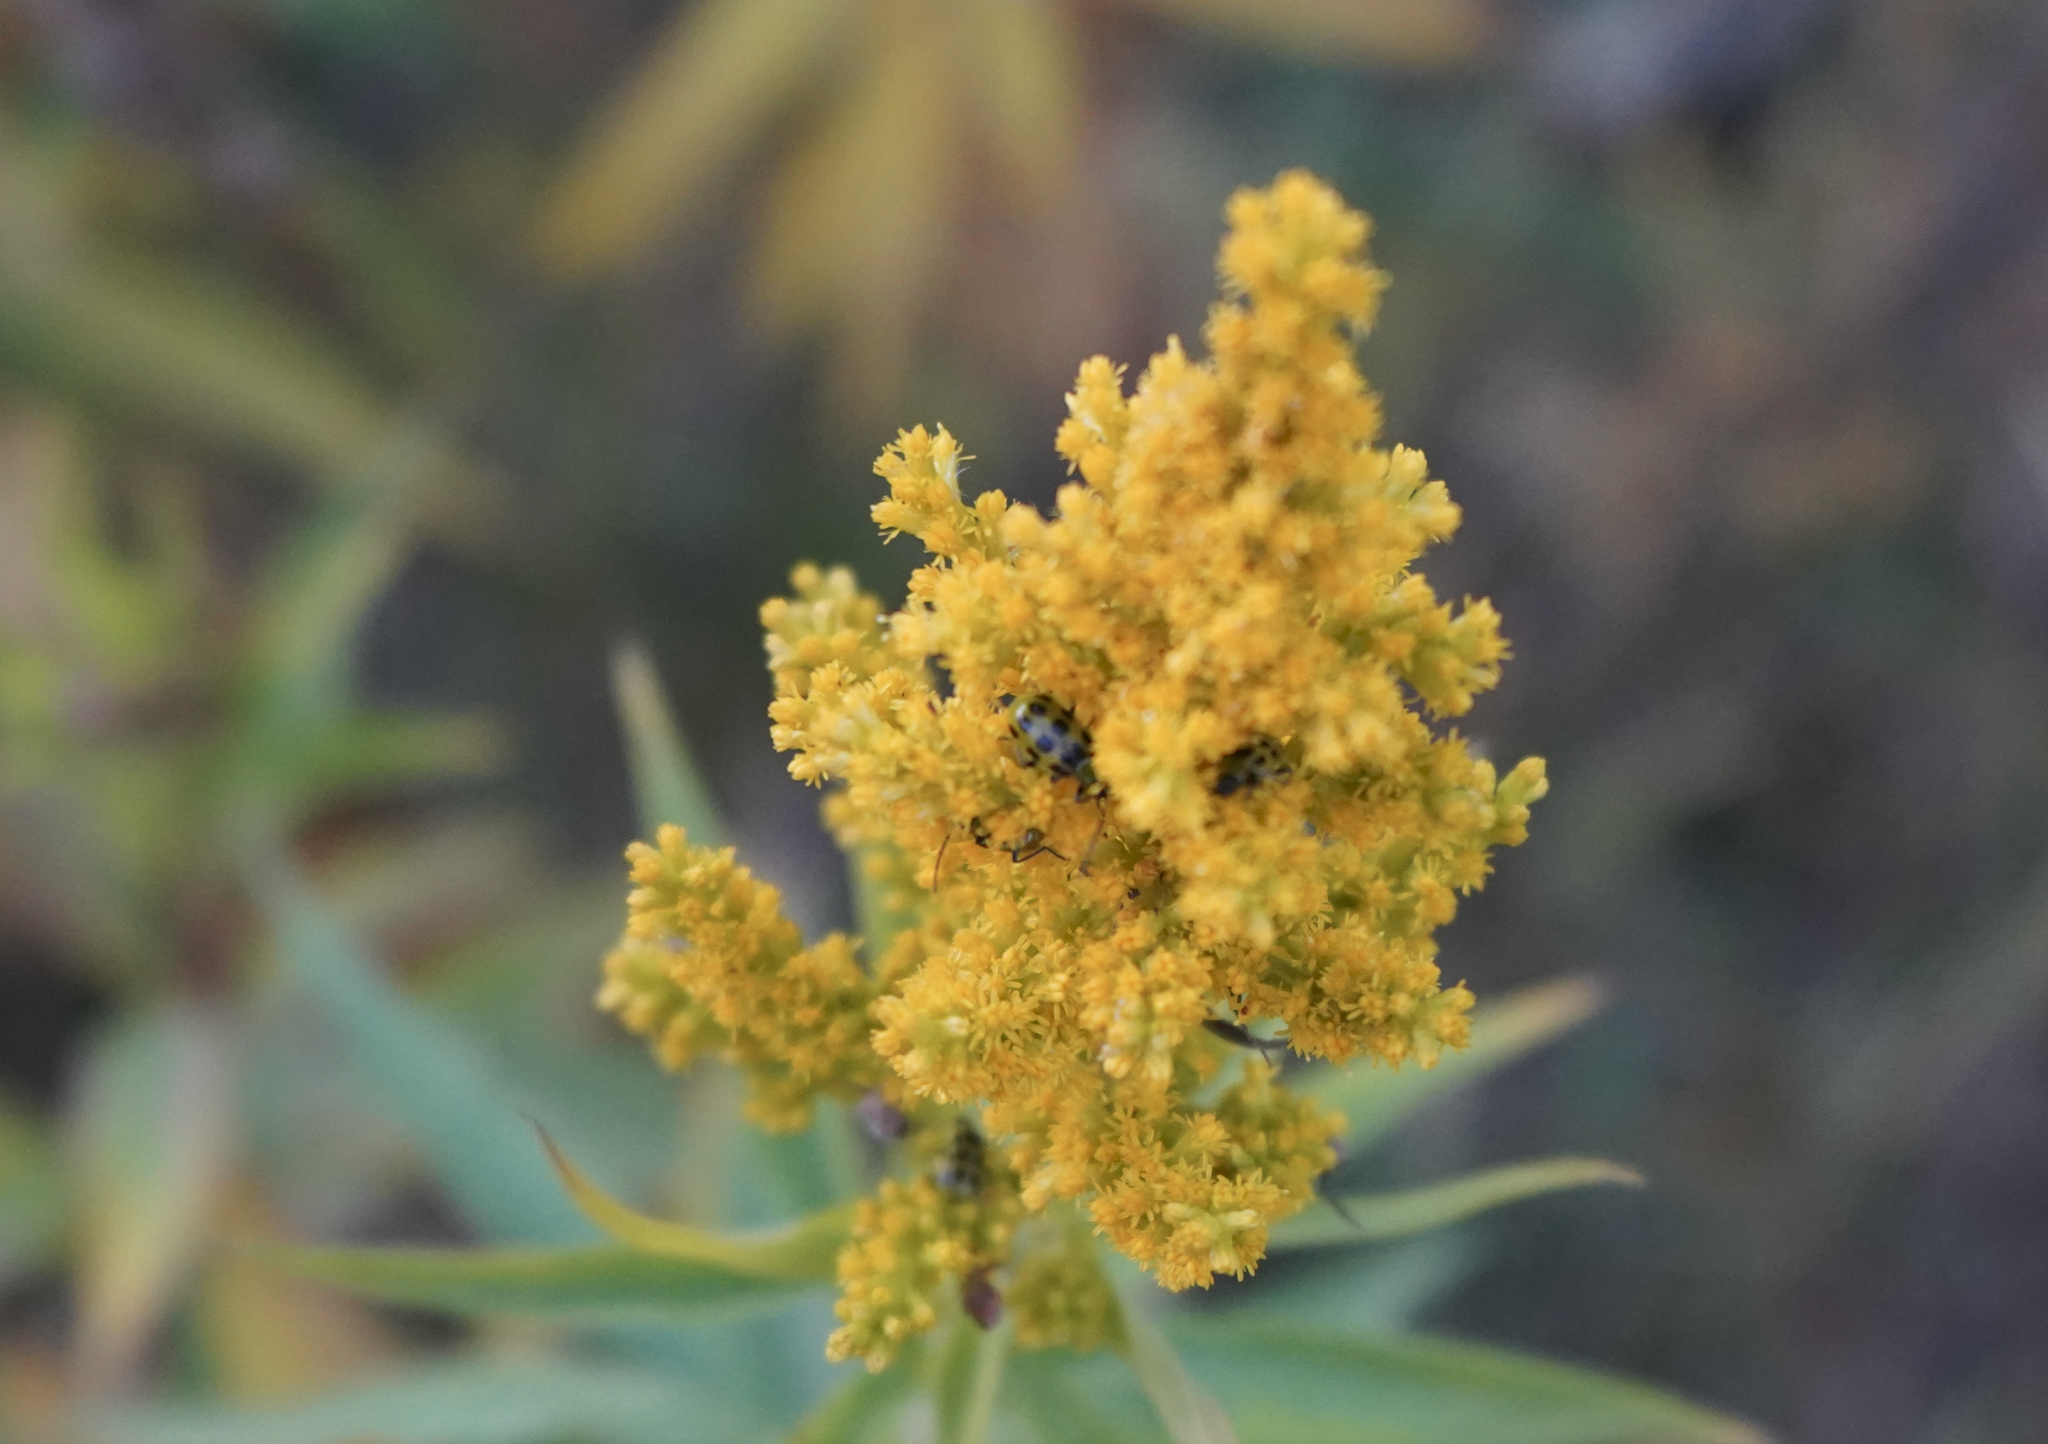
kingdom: Animalia
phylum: Arthropoda
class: Insecta
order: Coleoptera
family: Chrysomelidae
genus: Diabrotica
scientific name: Diabrotica undecimpunctata
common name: Spotted cucumber beetle
